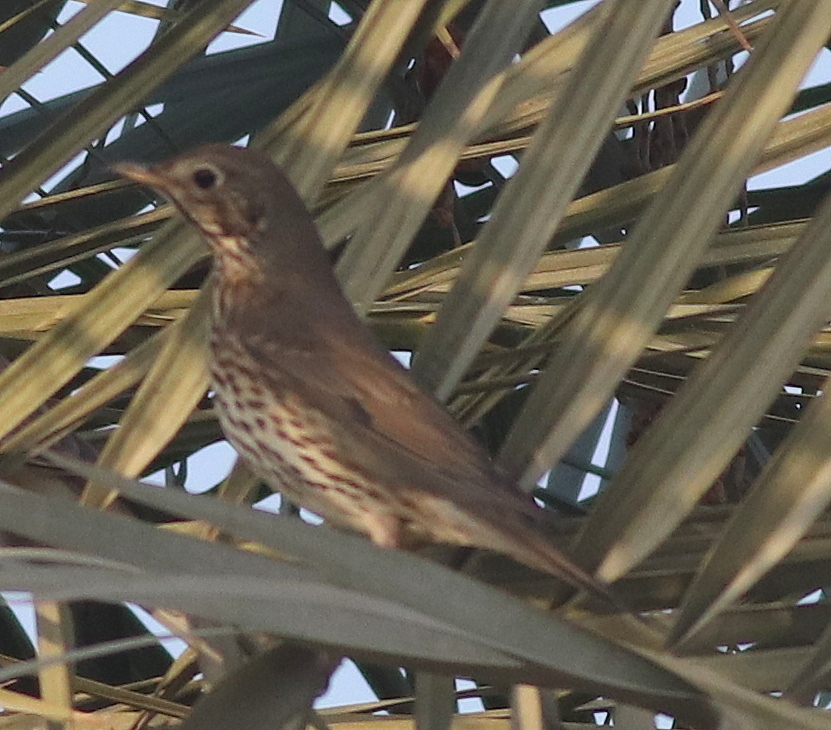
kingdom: Animalia
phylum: Chordata
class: Aves
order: Passeriformes
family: Turdidae
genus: Turdus
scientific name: Turdus philomelos
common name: Song thrush
